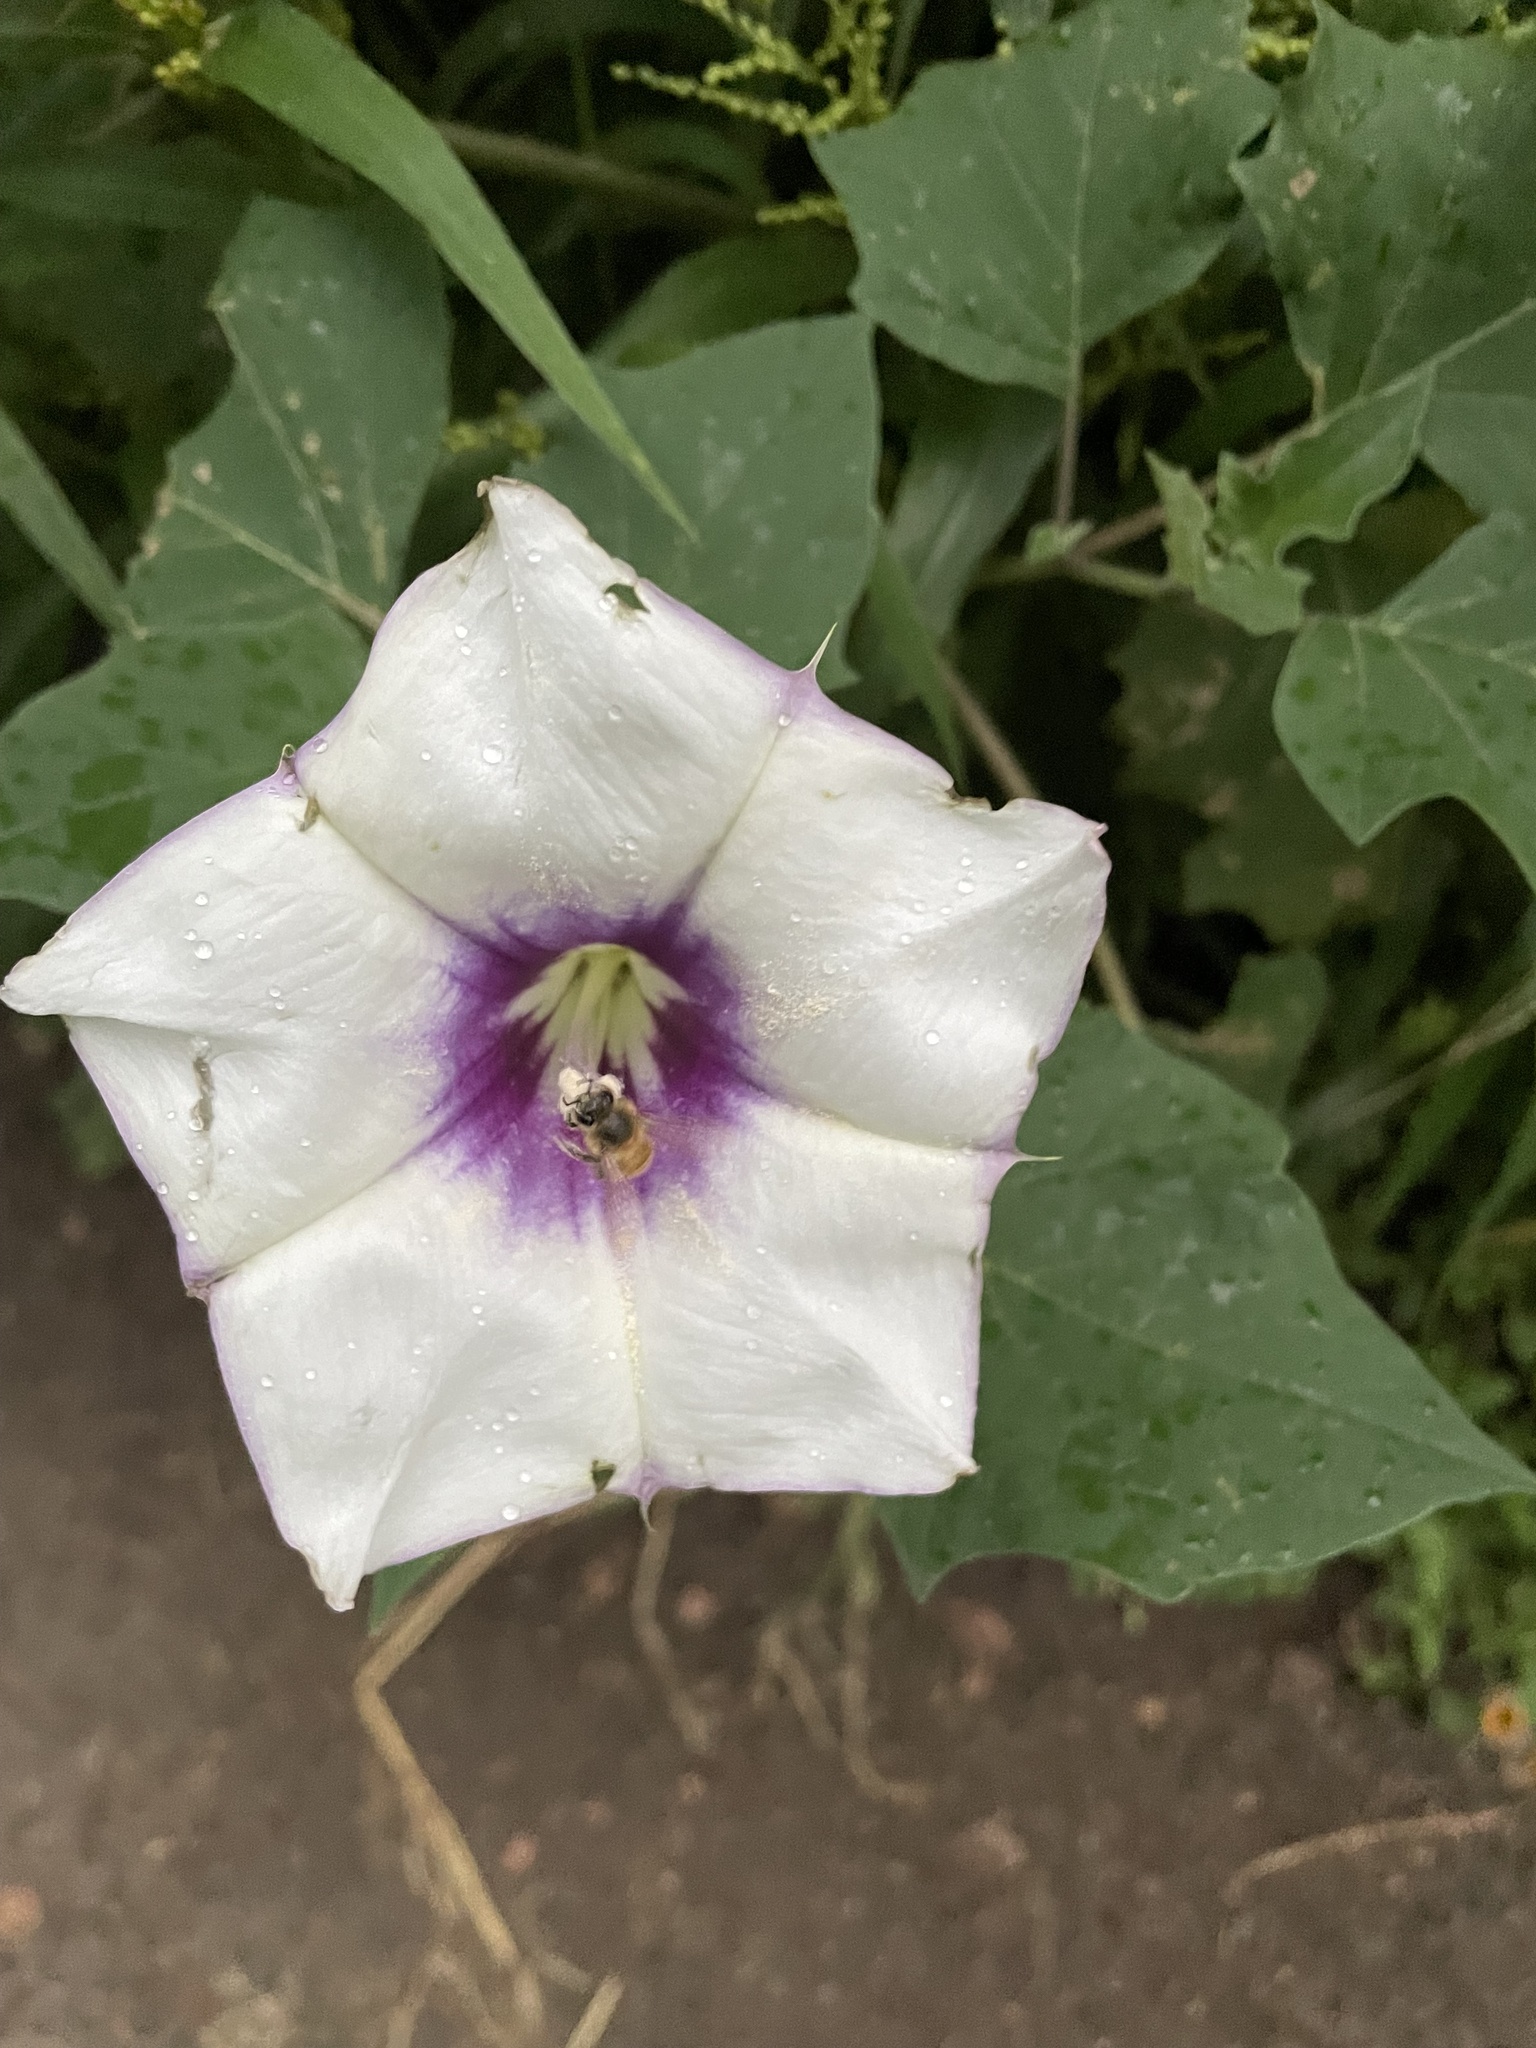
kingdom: Plantae
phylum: Tracheophyta
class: Magnoliopsida
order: Solanales
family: Solanaceae
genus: Datura
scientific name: Datura discolor
